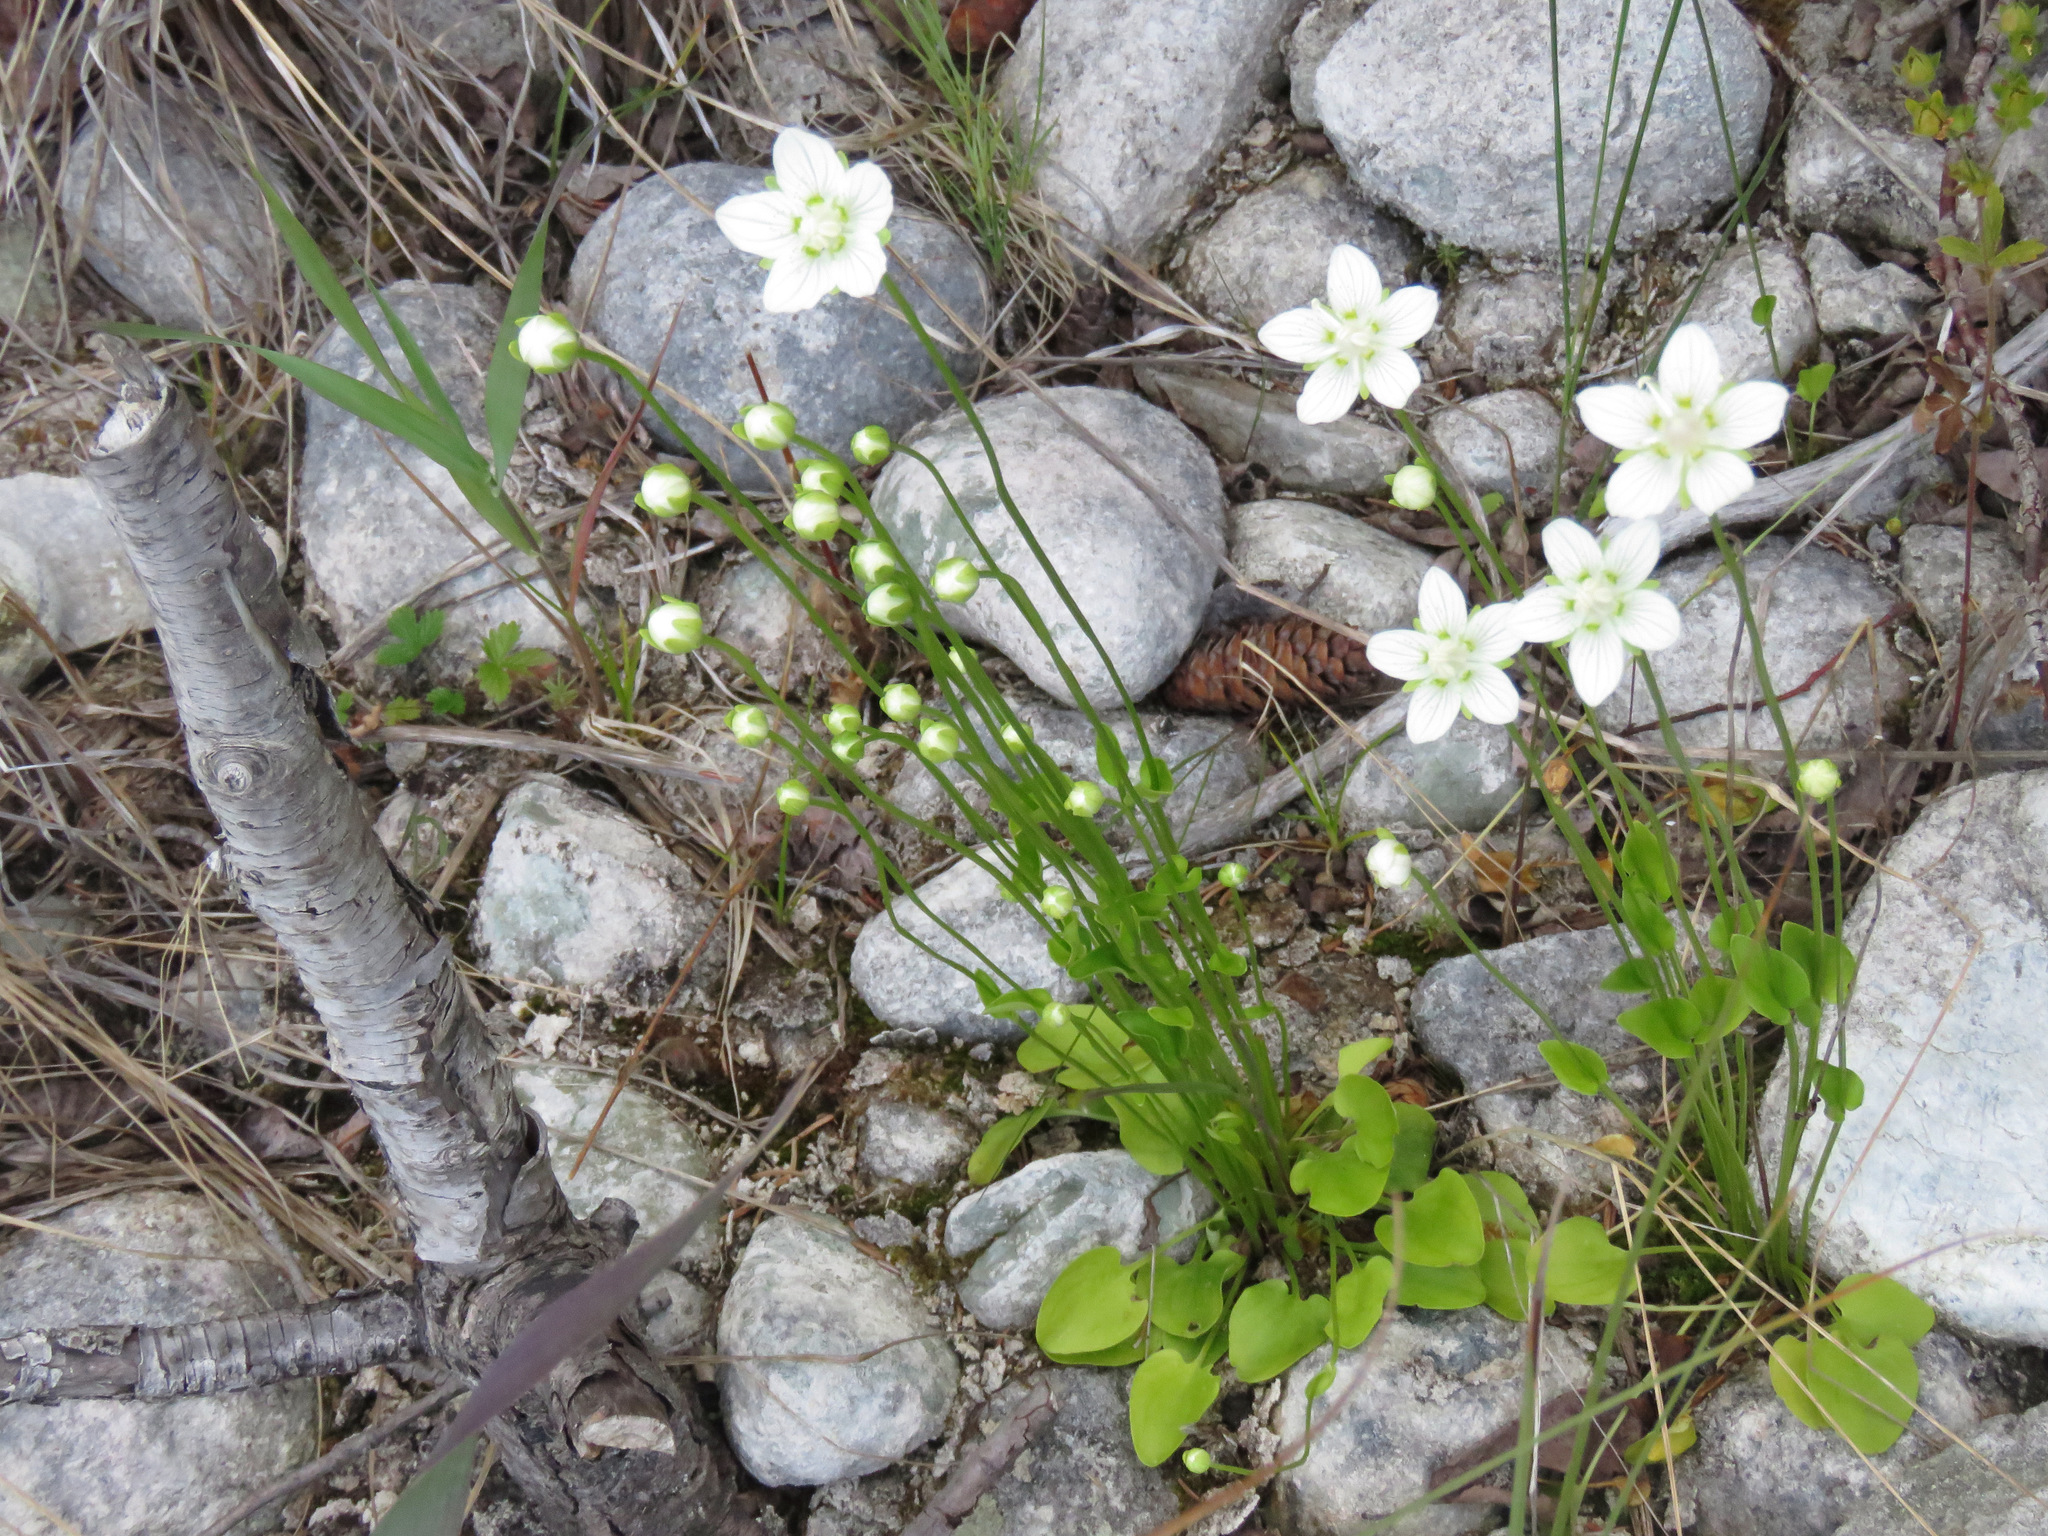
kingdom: Plantae
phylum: Tracheophyta
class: Magnoliopsida
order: Celastrales
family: Parnassiaceae
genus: Parnassia
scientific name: Parnassia palustris
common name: Grass-of-parnassus
